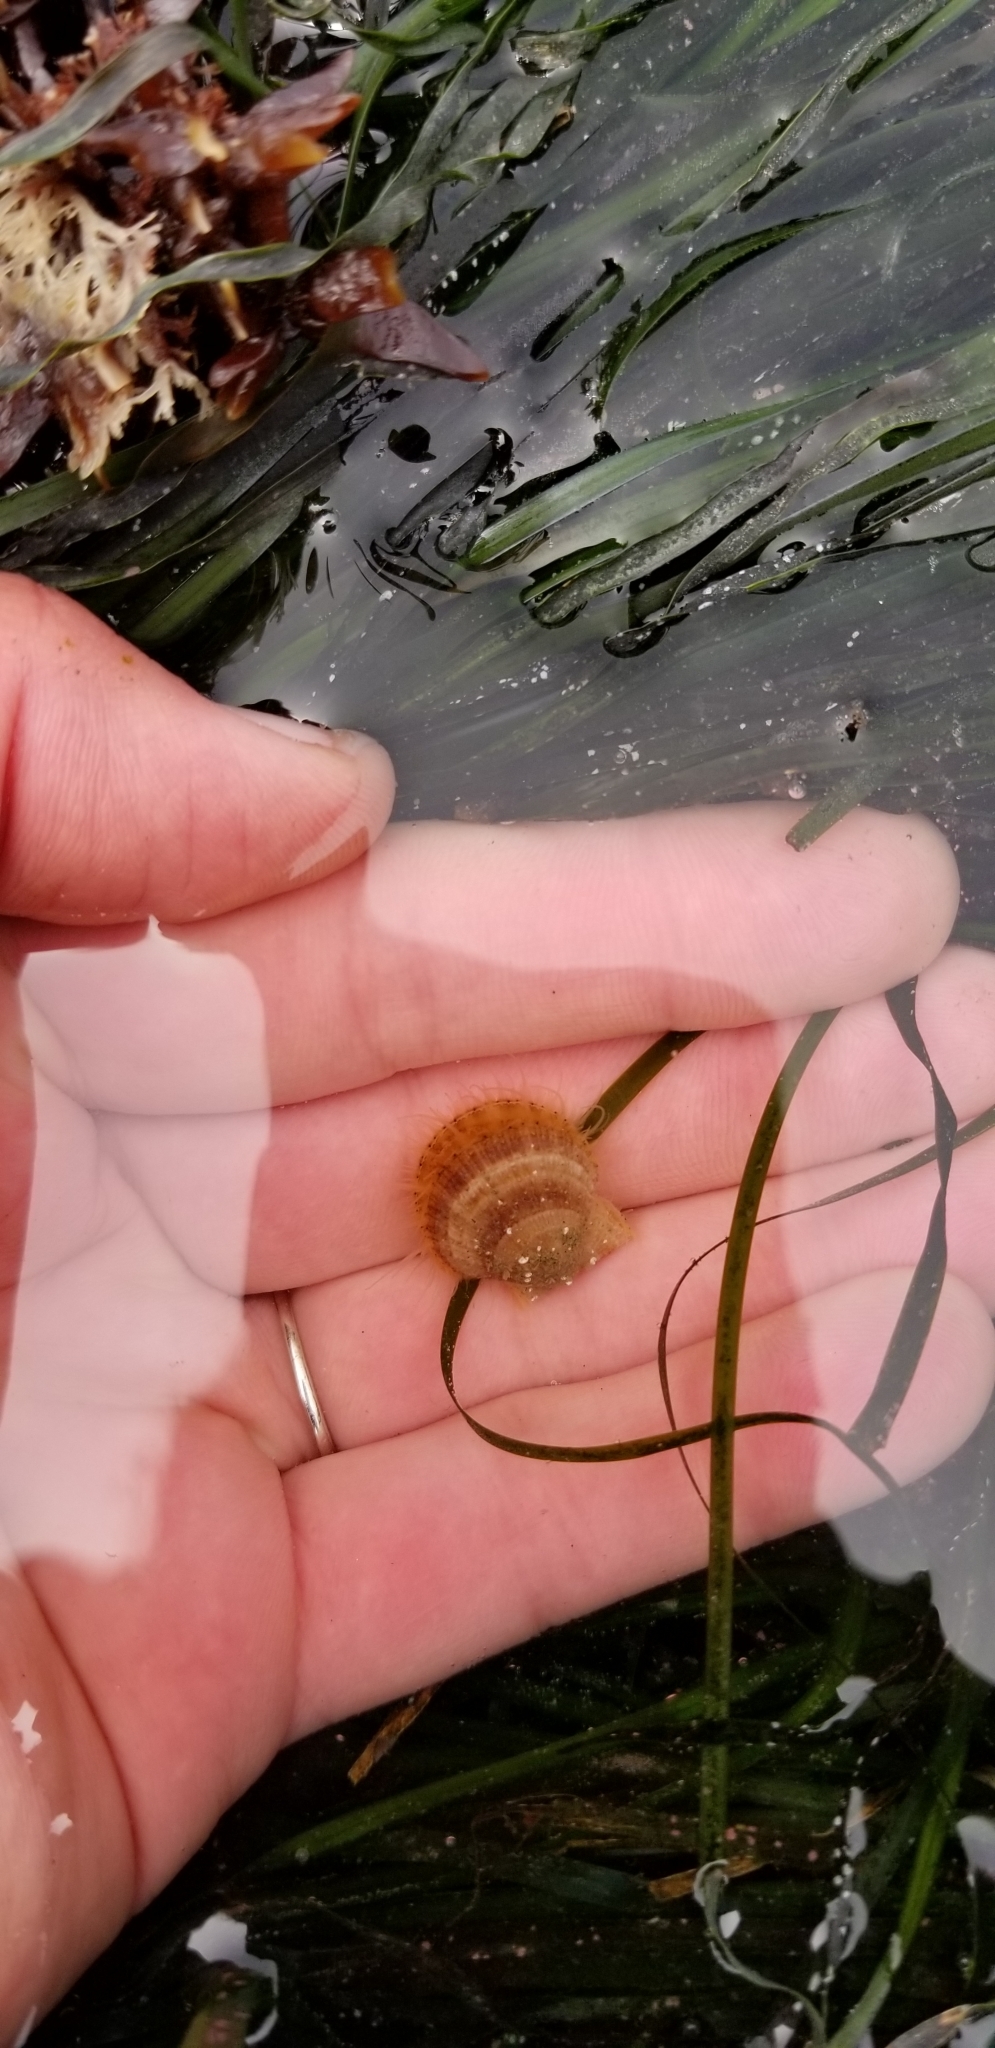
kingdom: Animalia
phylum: Mollusca
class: Bivalvia
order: Pectinida
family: Pectinidae
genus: Crassadoma
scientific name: Crassadoma gigantea
